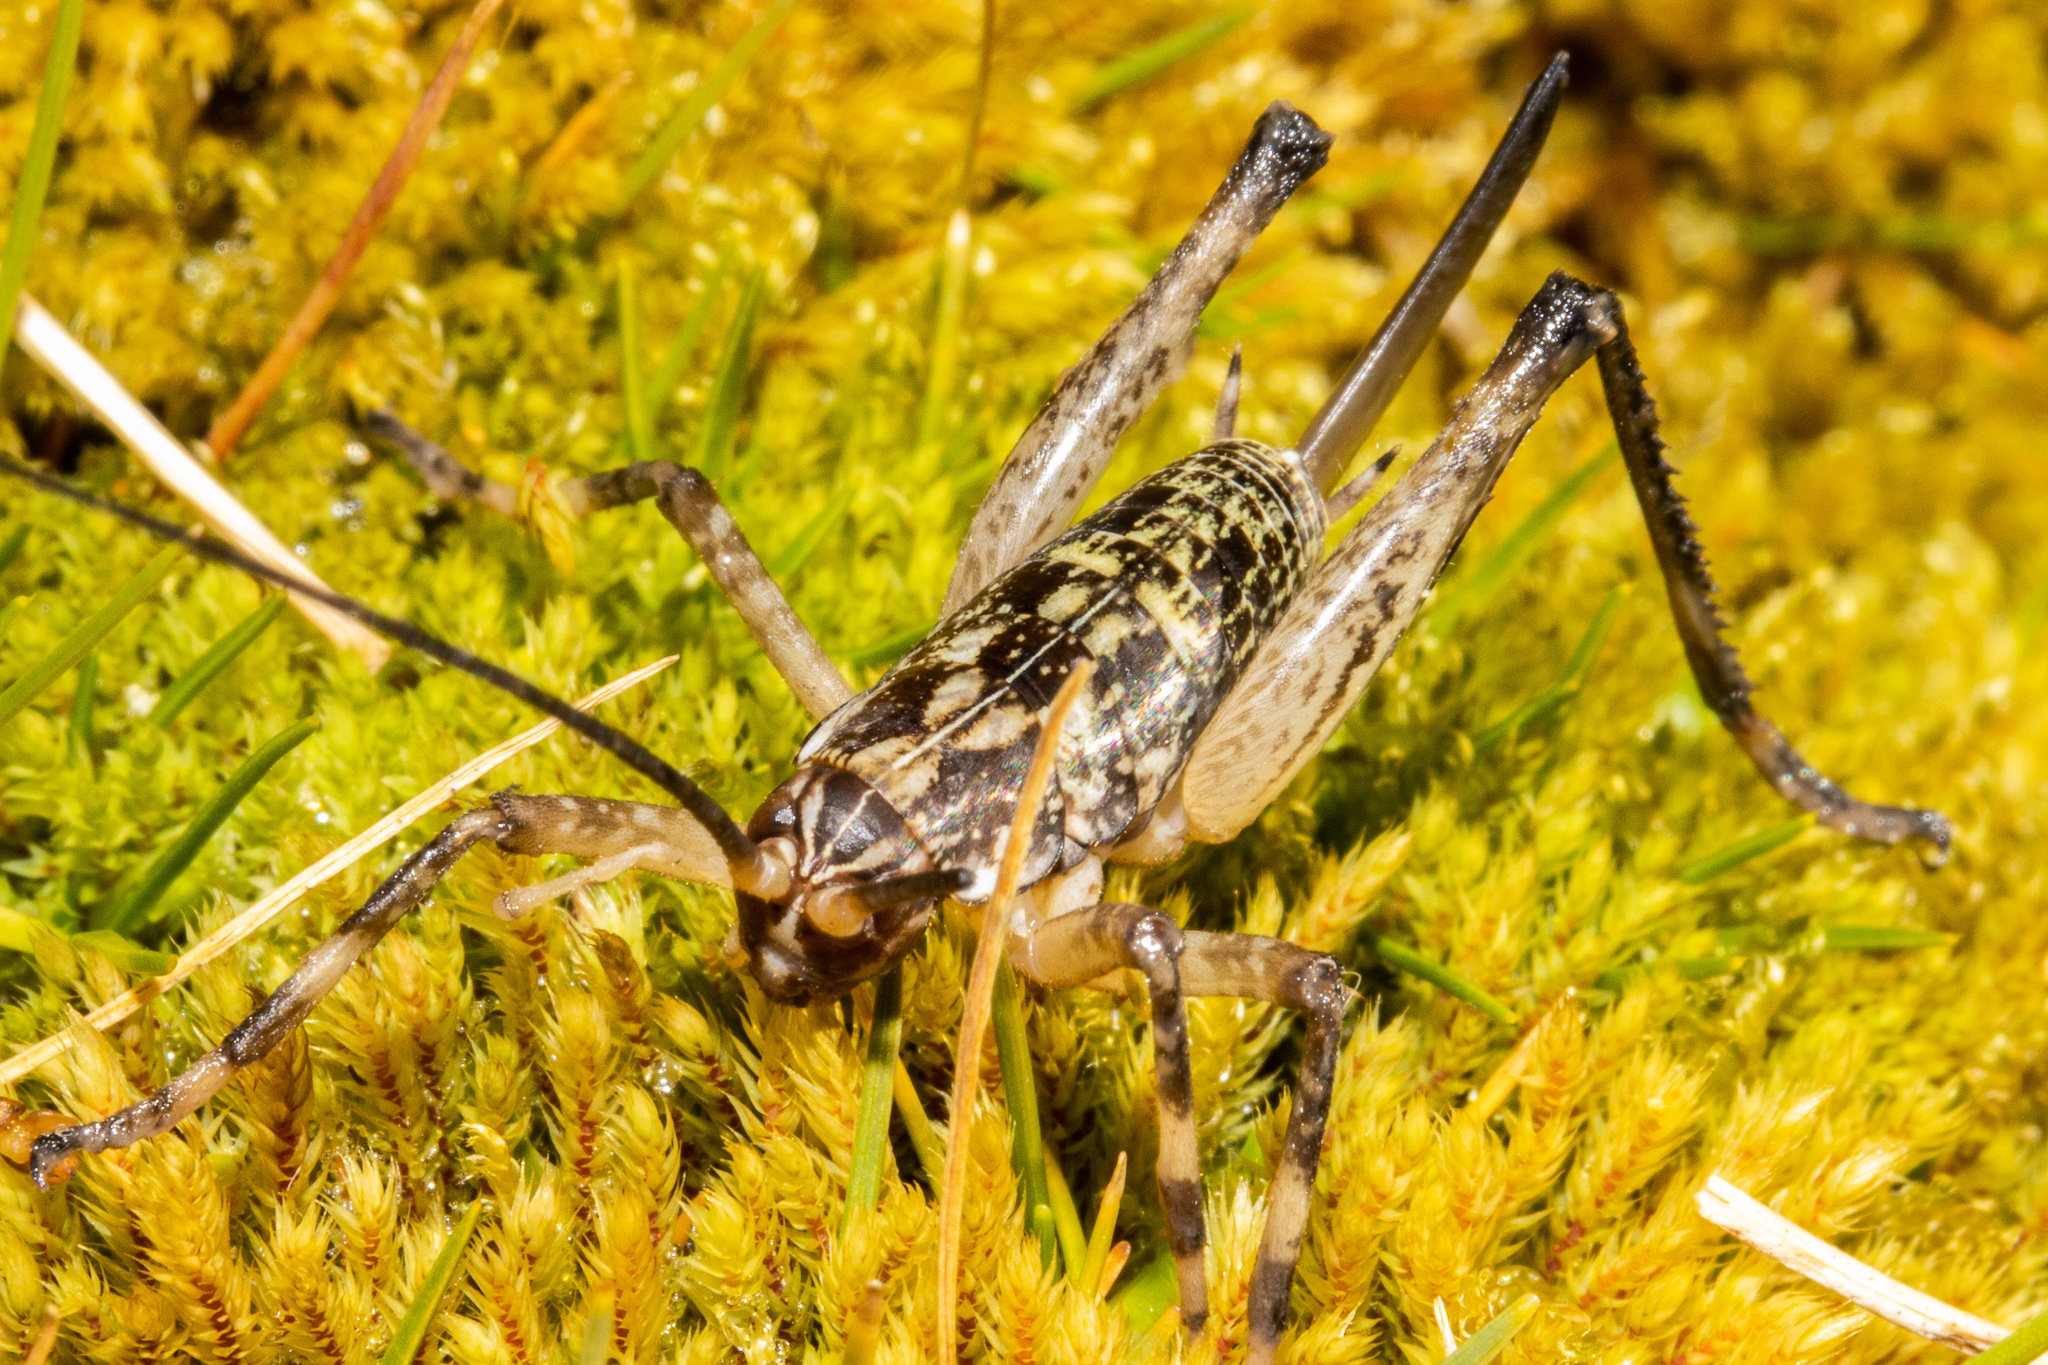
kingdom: Animalia
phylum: Arthropoda
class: Insecta
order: Orthoptera
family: Rhaphidophoridae
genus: Pharmacus
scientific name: Pharmacus cochleatus
